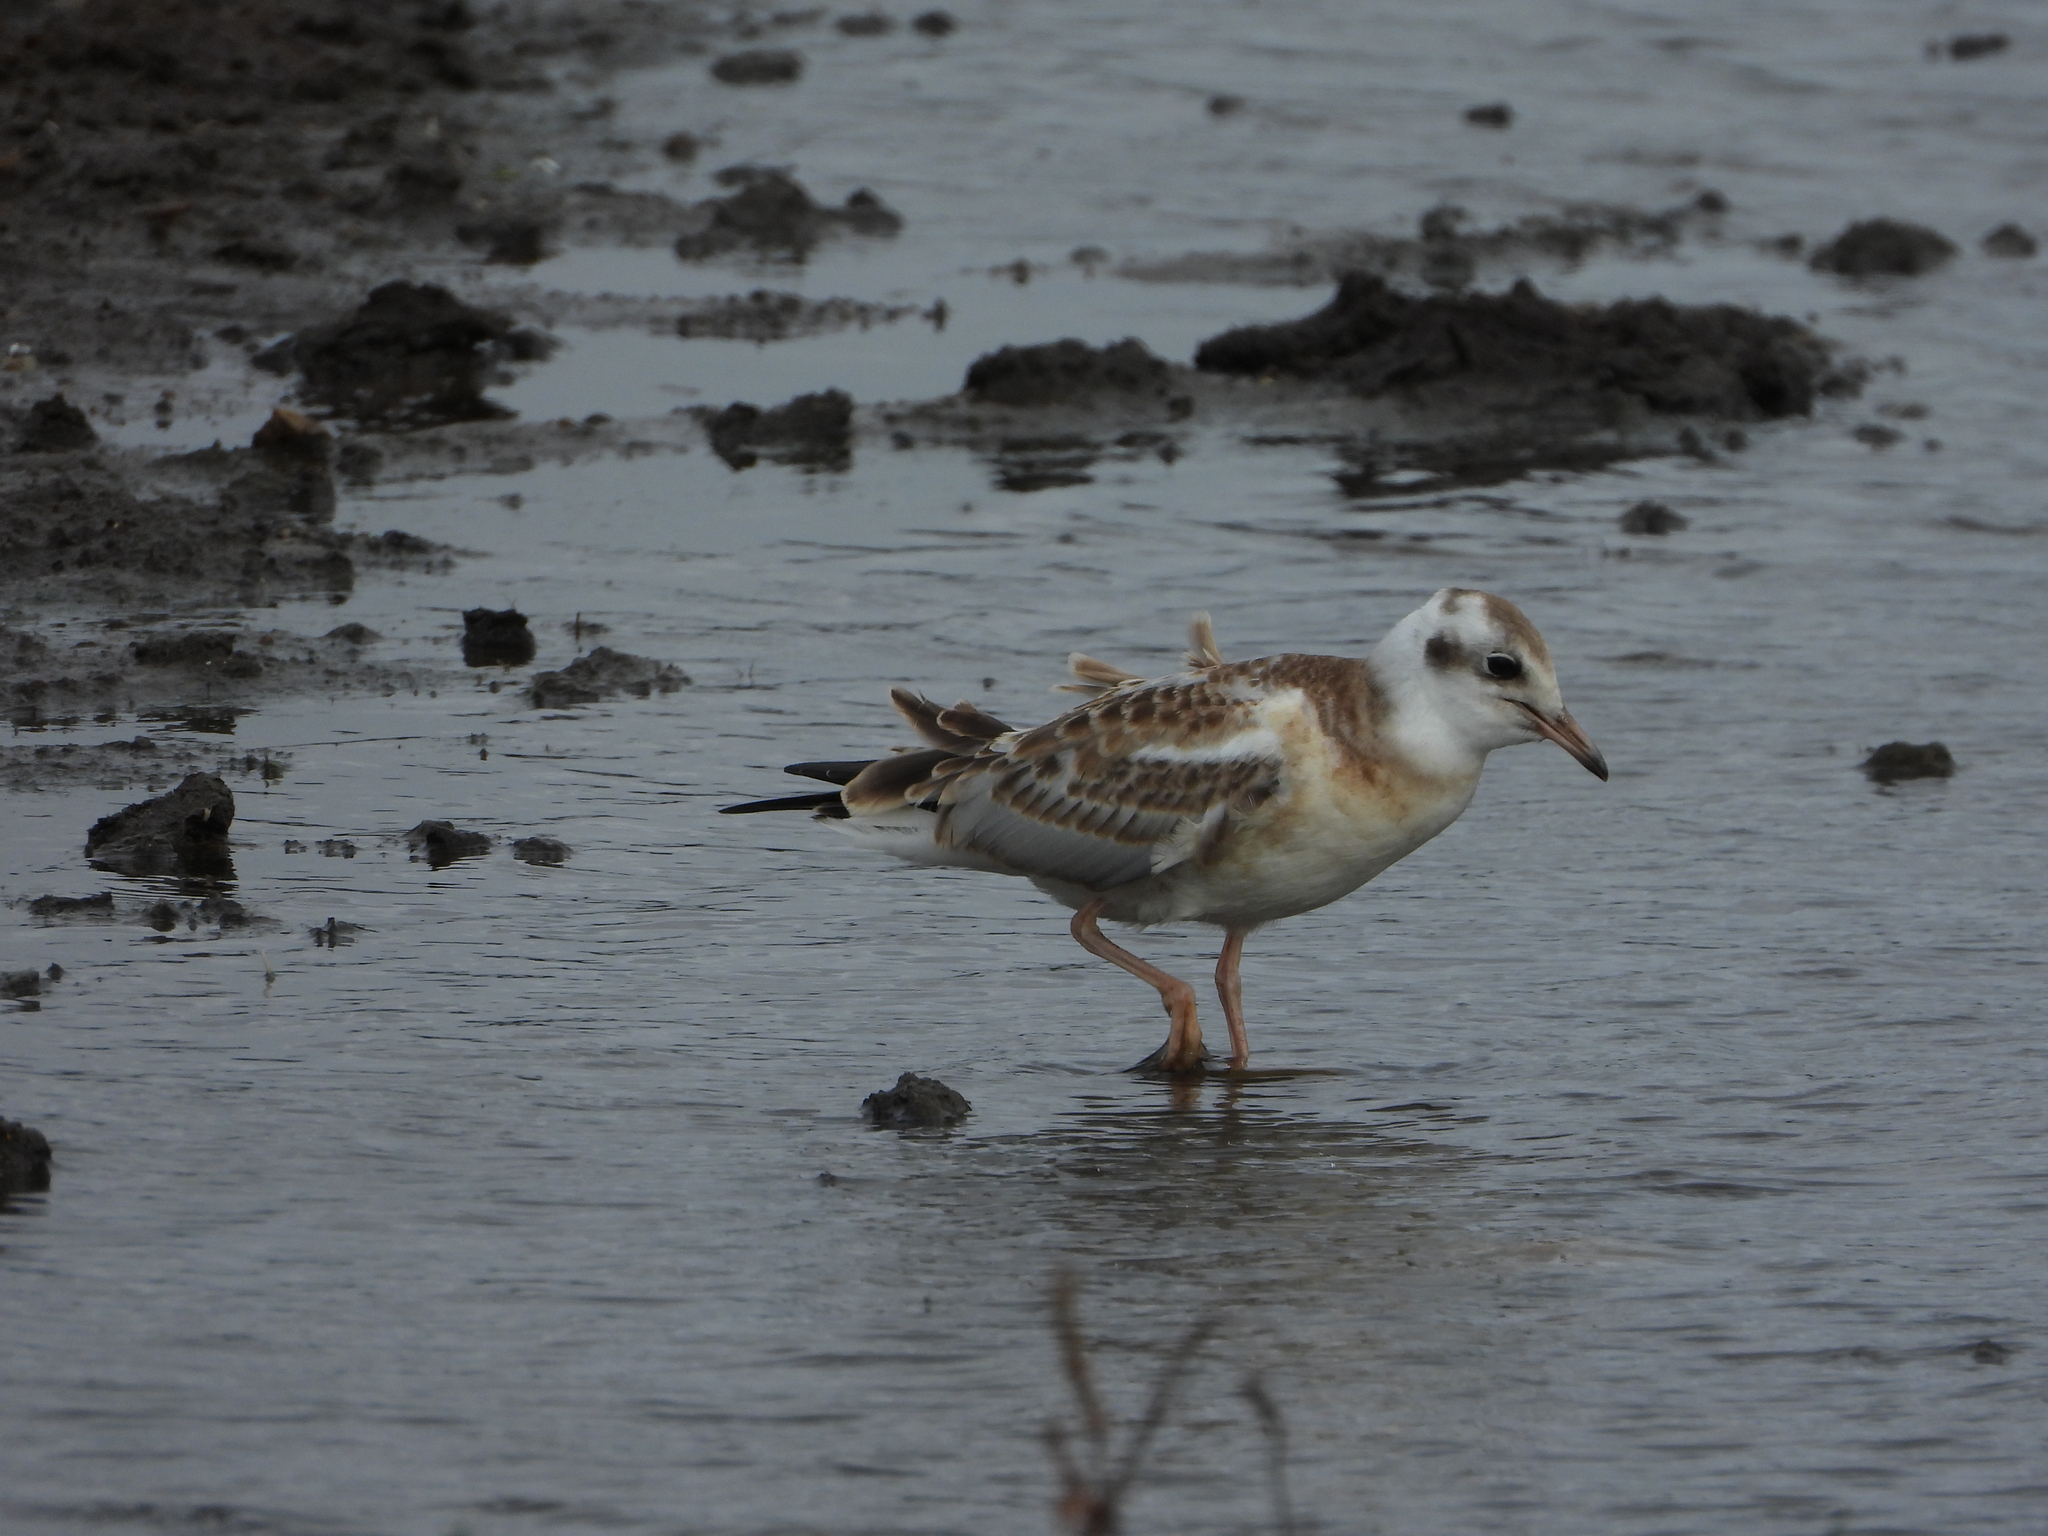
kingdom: Animalia
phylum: Chordata
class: Aves
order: Charadriiformes
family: Laridae
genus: Chroicocephalus
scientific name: Chroicocephalus ridibundus
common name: Black-headed gull
